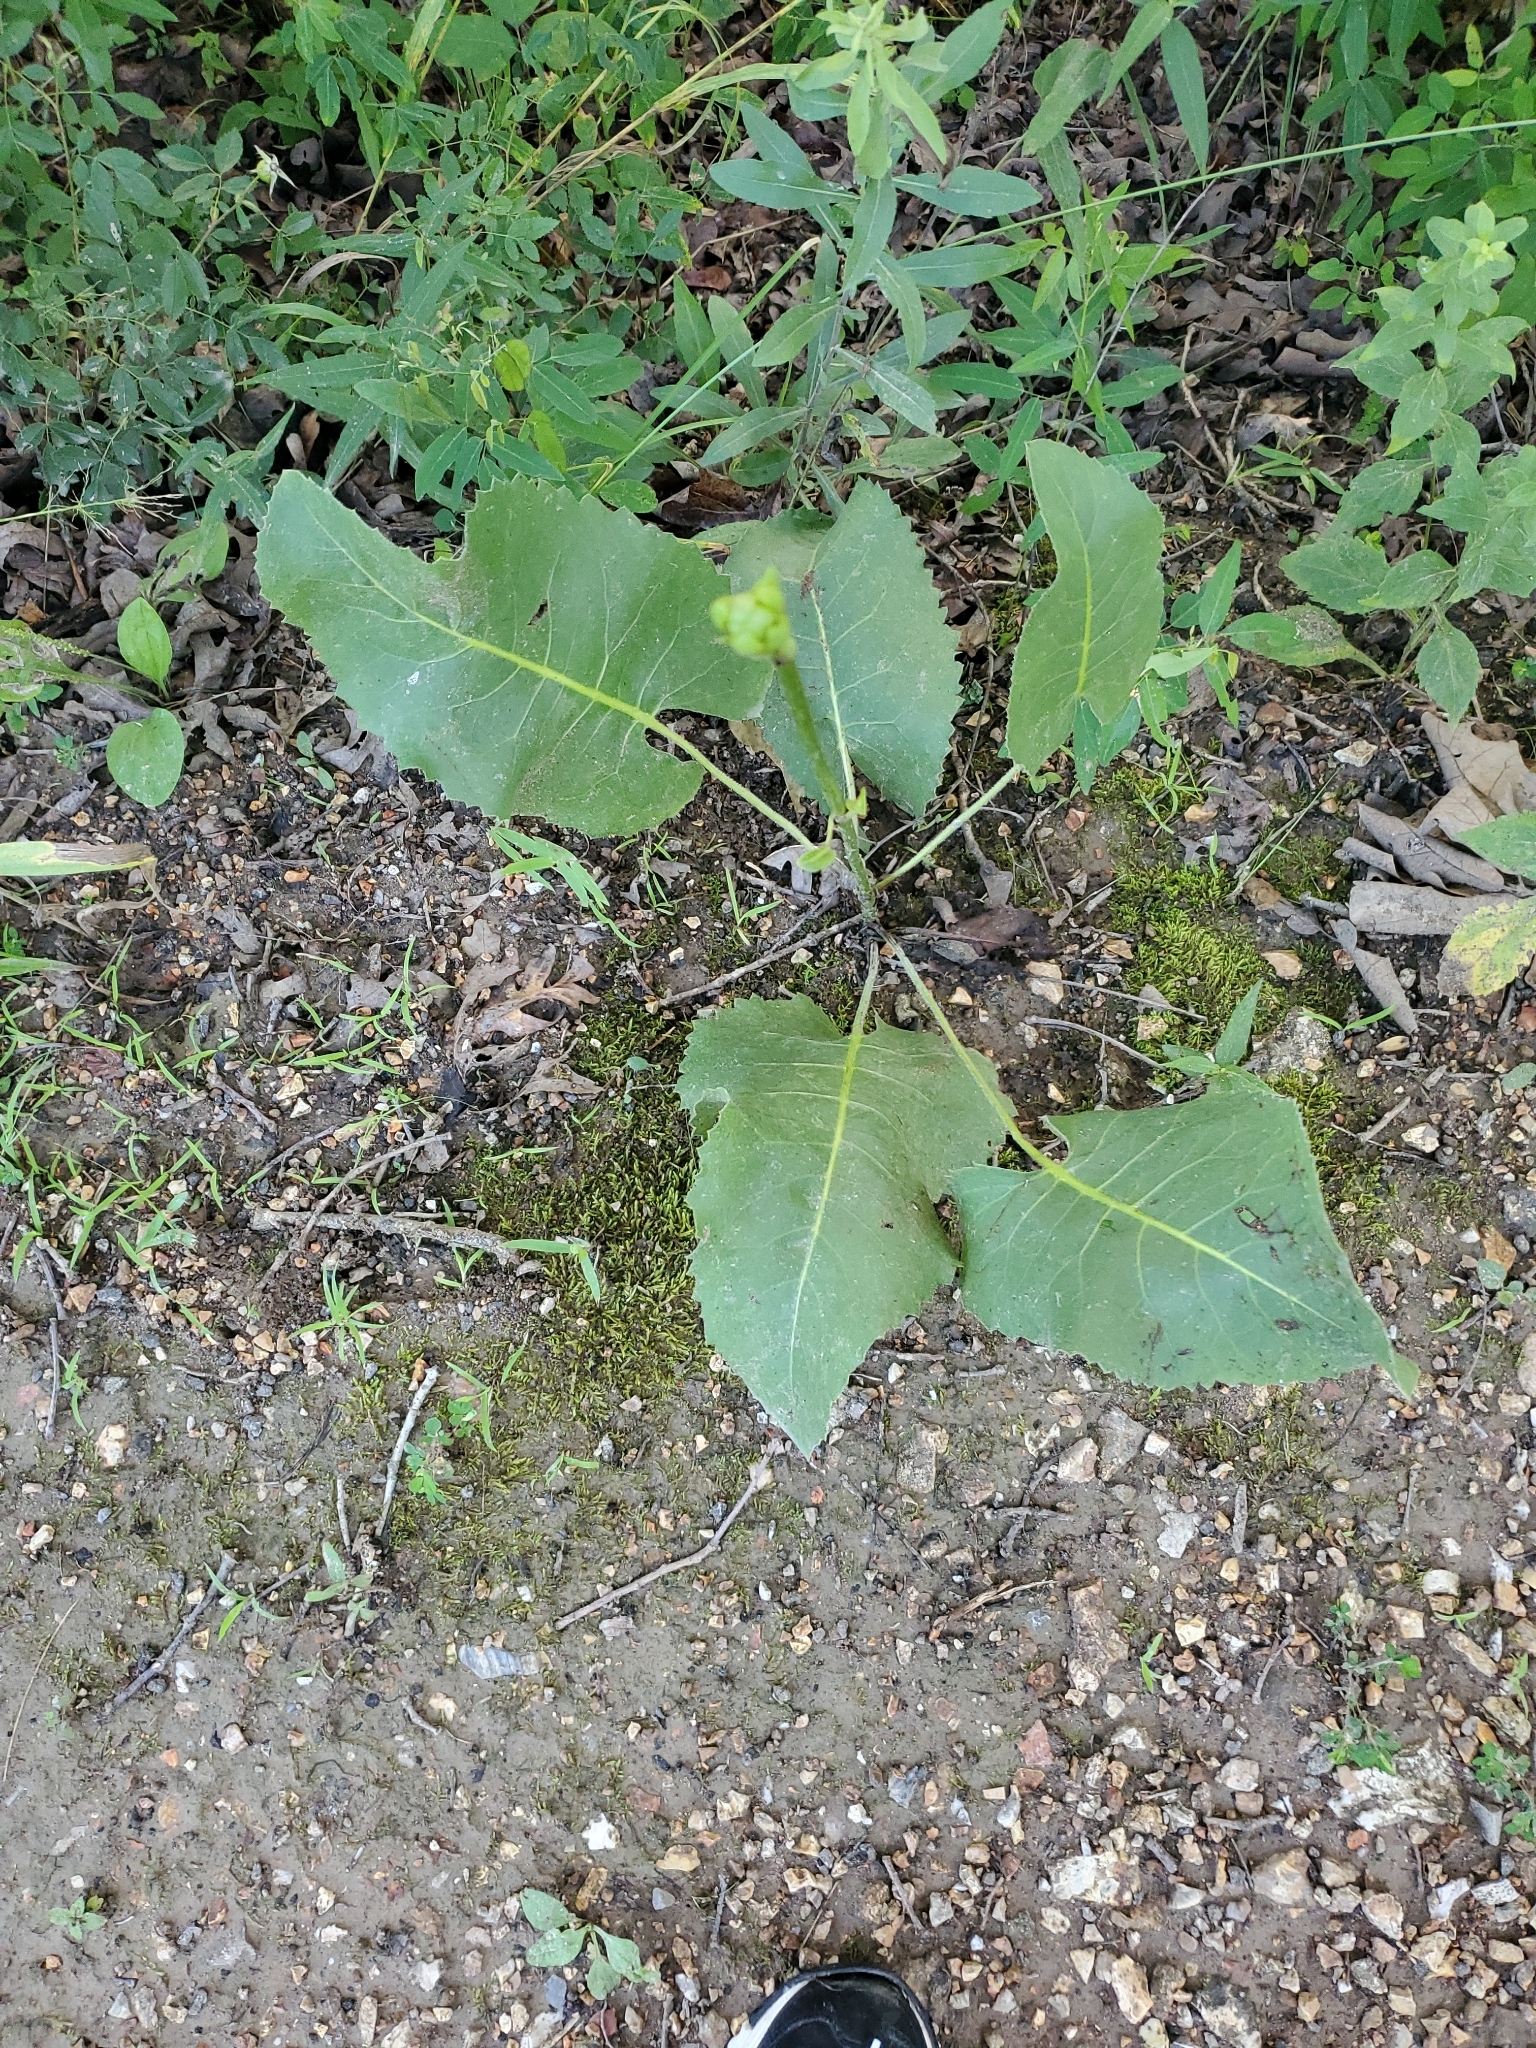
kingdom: Plantae
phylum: Tracheophyta
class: Magnoliopsida
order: Asterales
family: Asteraceae
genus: Silphium
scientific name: Silphium terebinthinaceum
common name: Basal-leaf rosinweed
